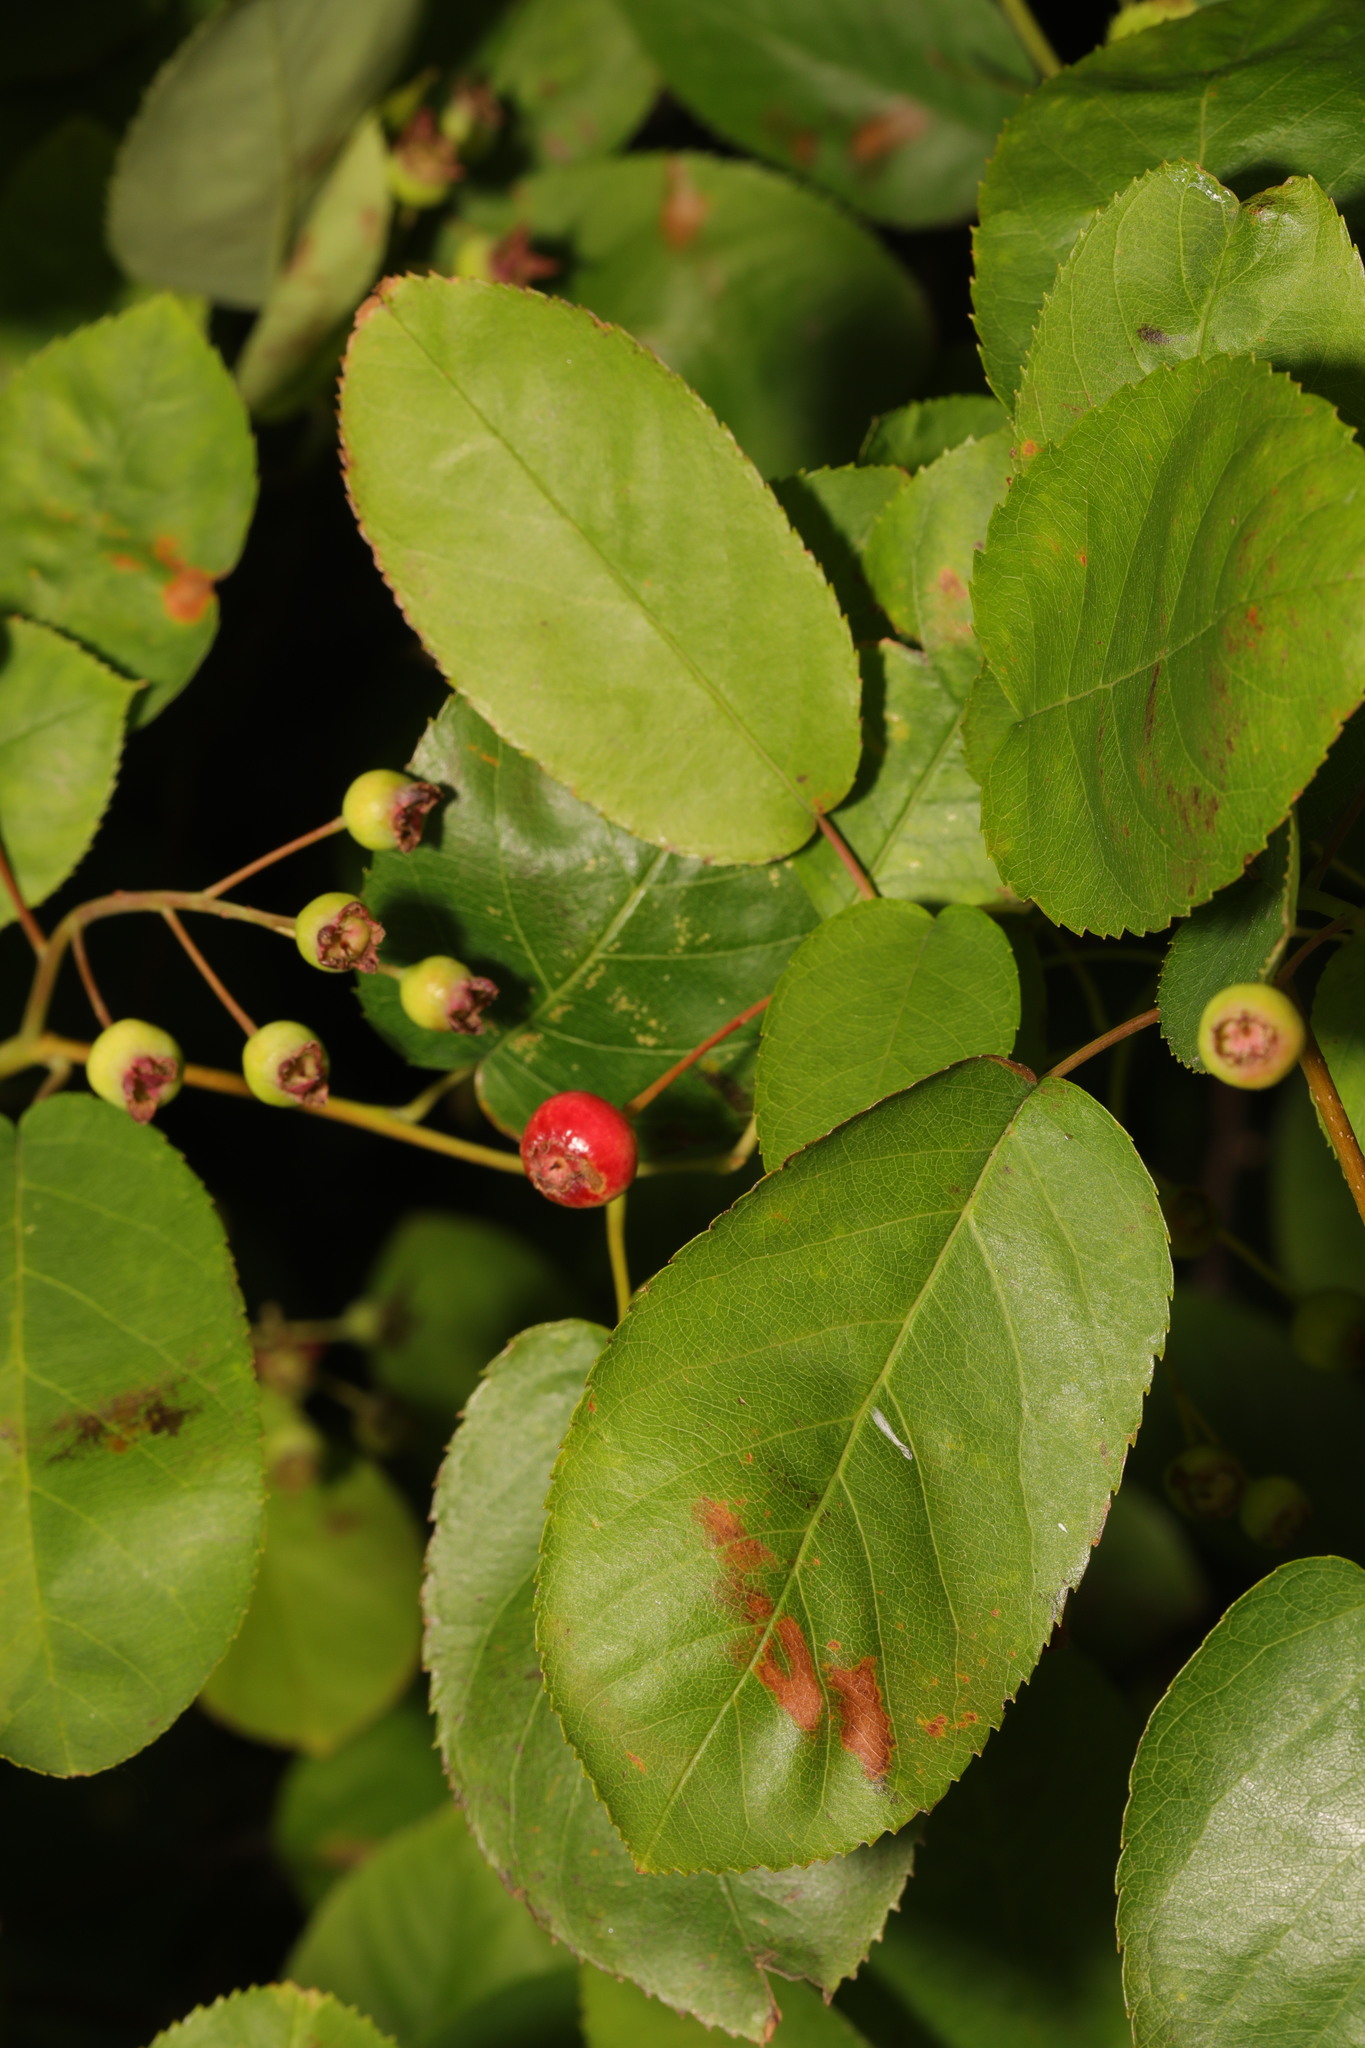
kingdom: Plantae
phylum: Tracheophyta
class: Magnoliopsida
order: Rosales
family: Rosaceae
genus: Amelanchier
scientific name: Amelanchier lamarckii
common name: Juneberry
